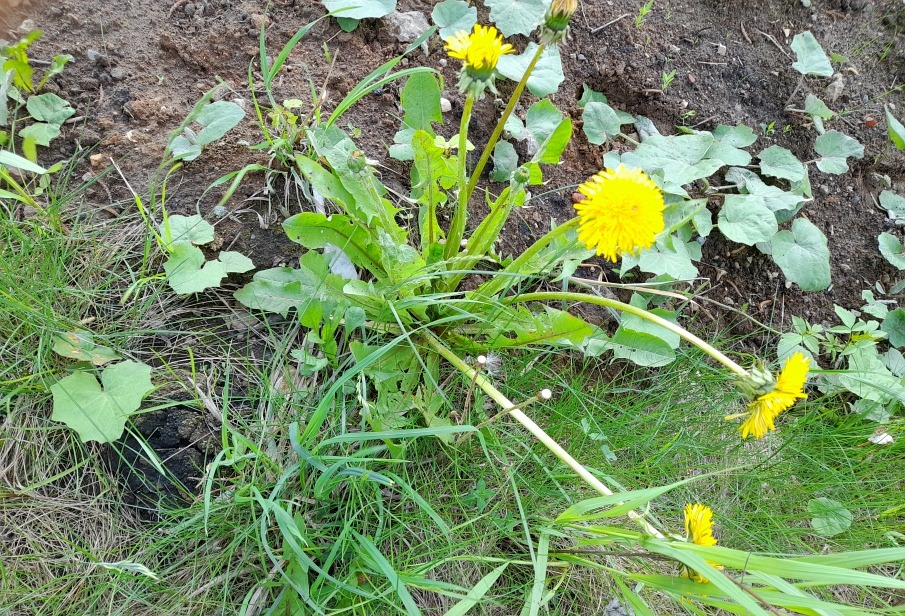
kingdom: Plantae
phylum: Tracheophyta
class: Magnoliopsida
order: Asterales
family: Asteraceae
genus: Taraxacum
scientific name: Taraxacum officinale
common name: Common dandelion
